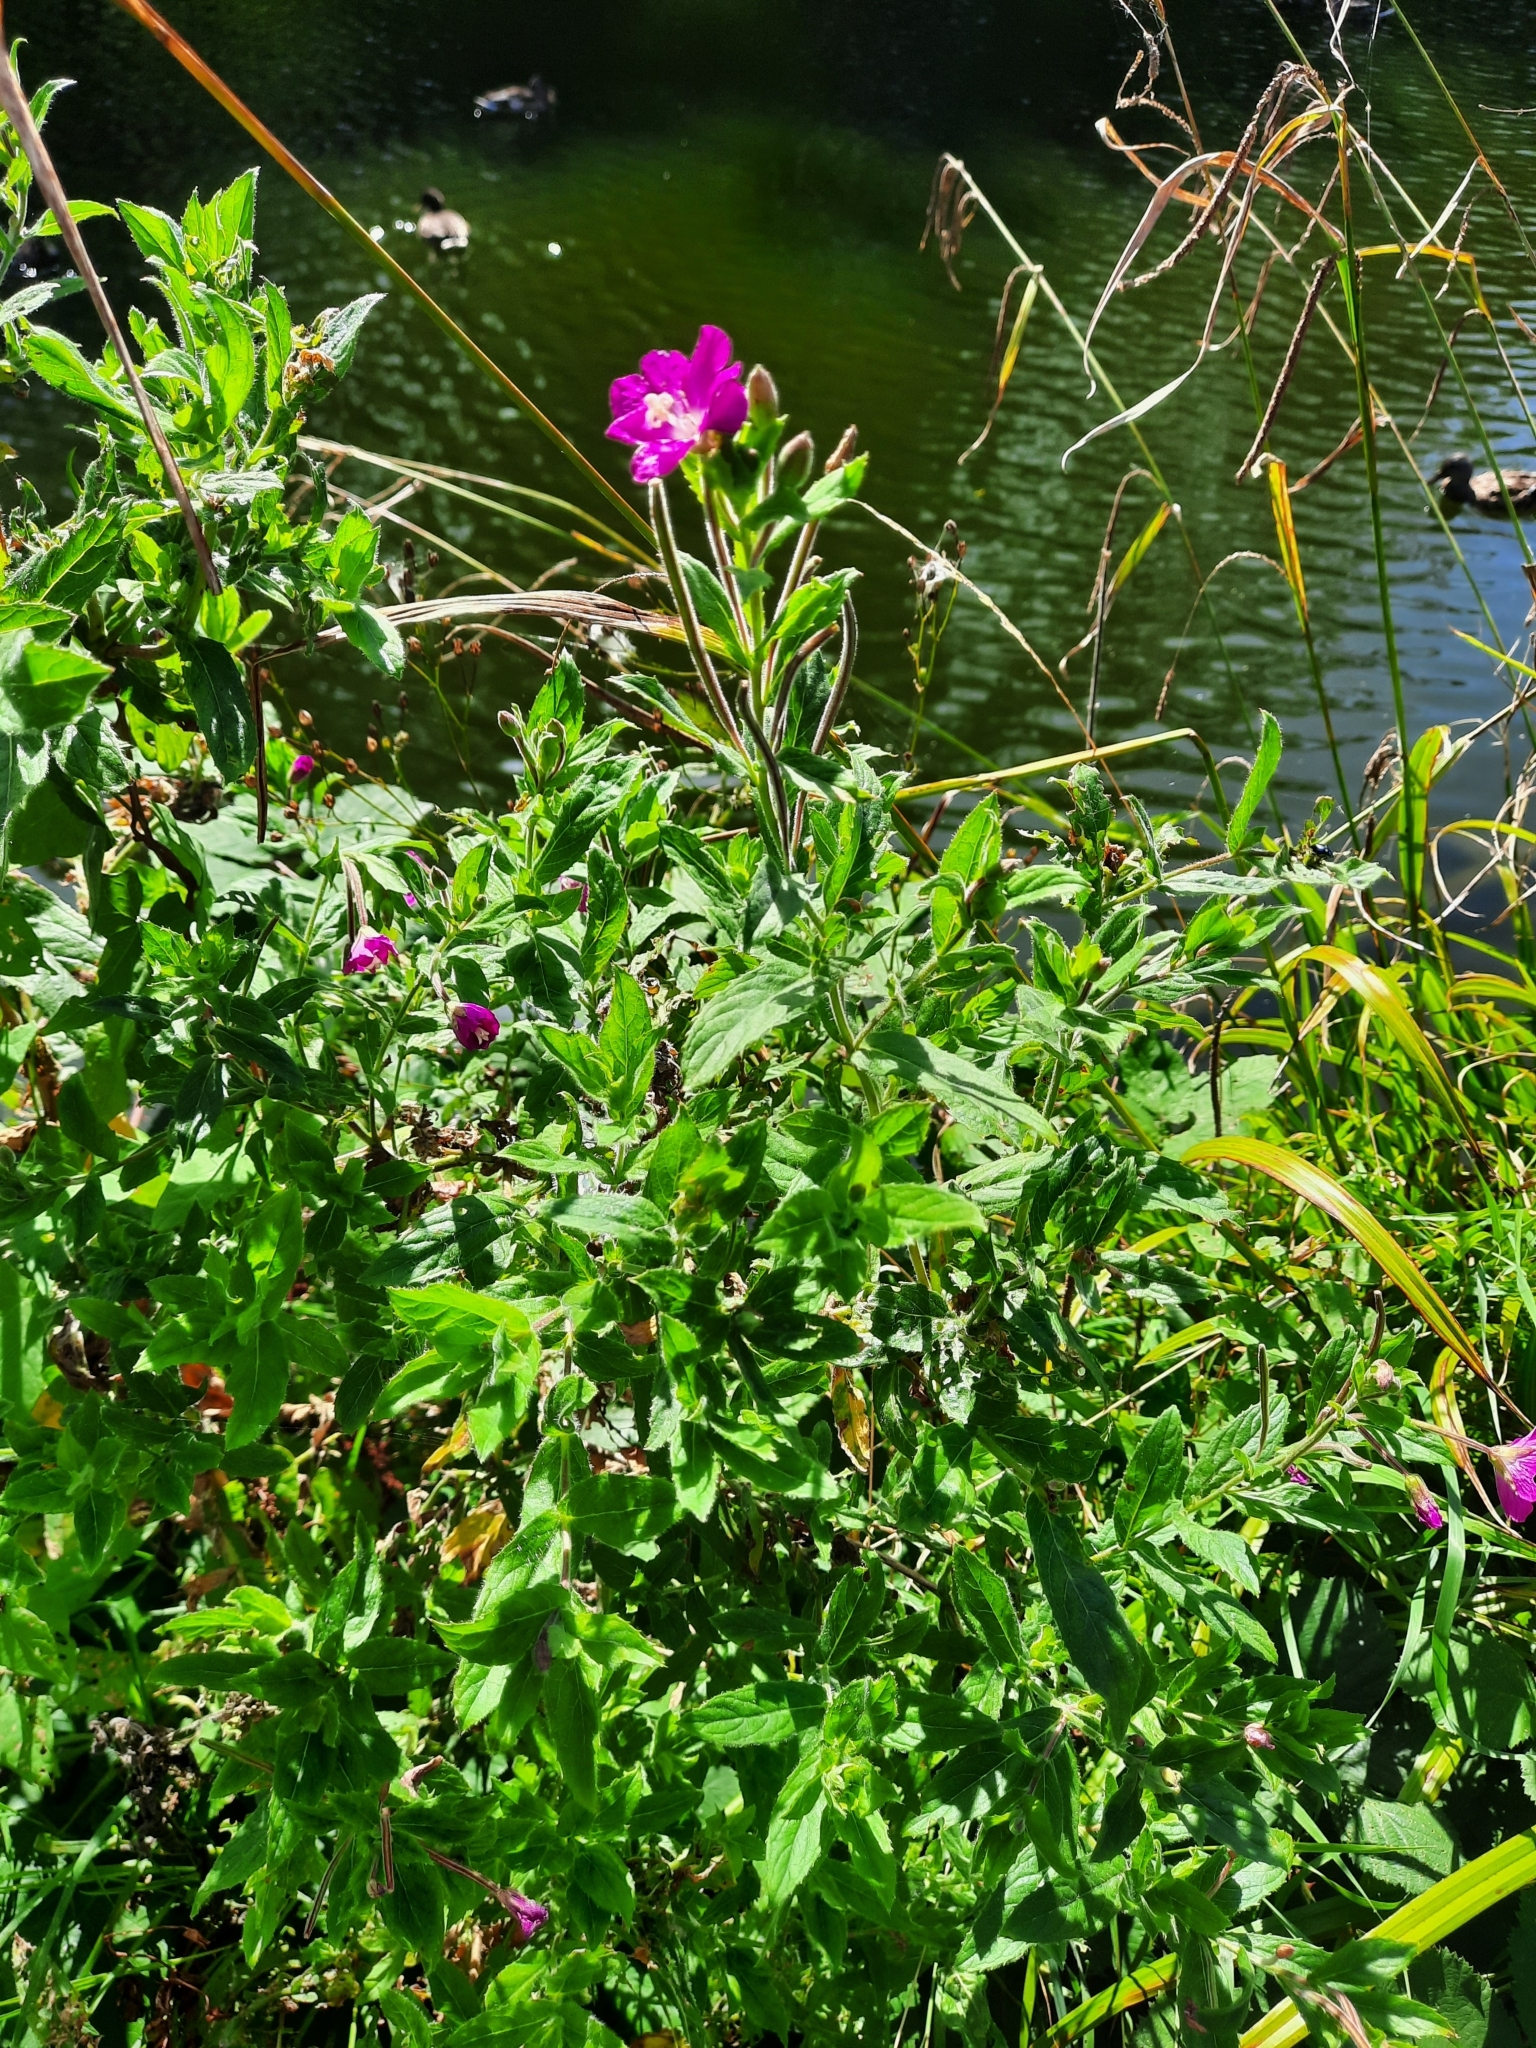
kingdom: Plantae
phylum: Tracheophyta
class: Magnoliopsida
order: Myrtales
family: Onagraceae
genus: Epilobium
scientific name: Epilobium hirsutum
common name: Great willowherb
